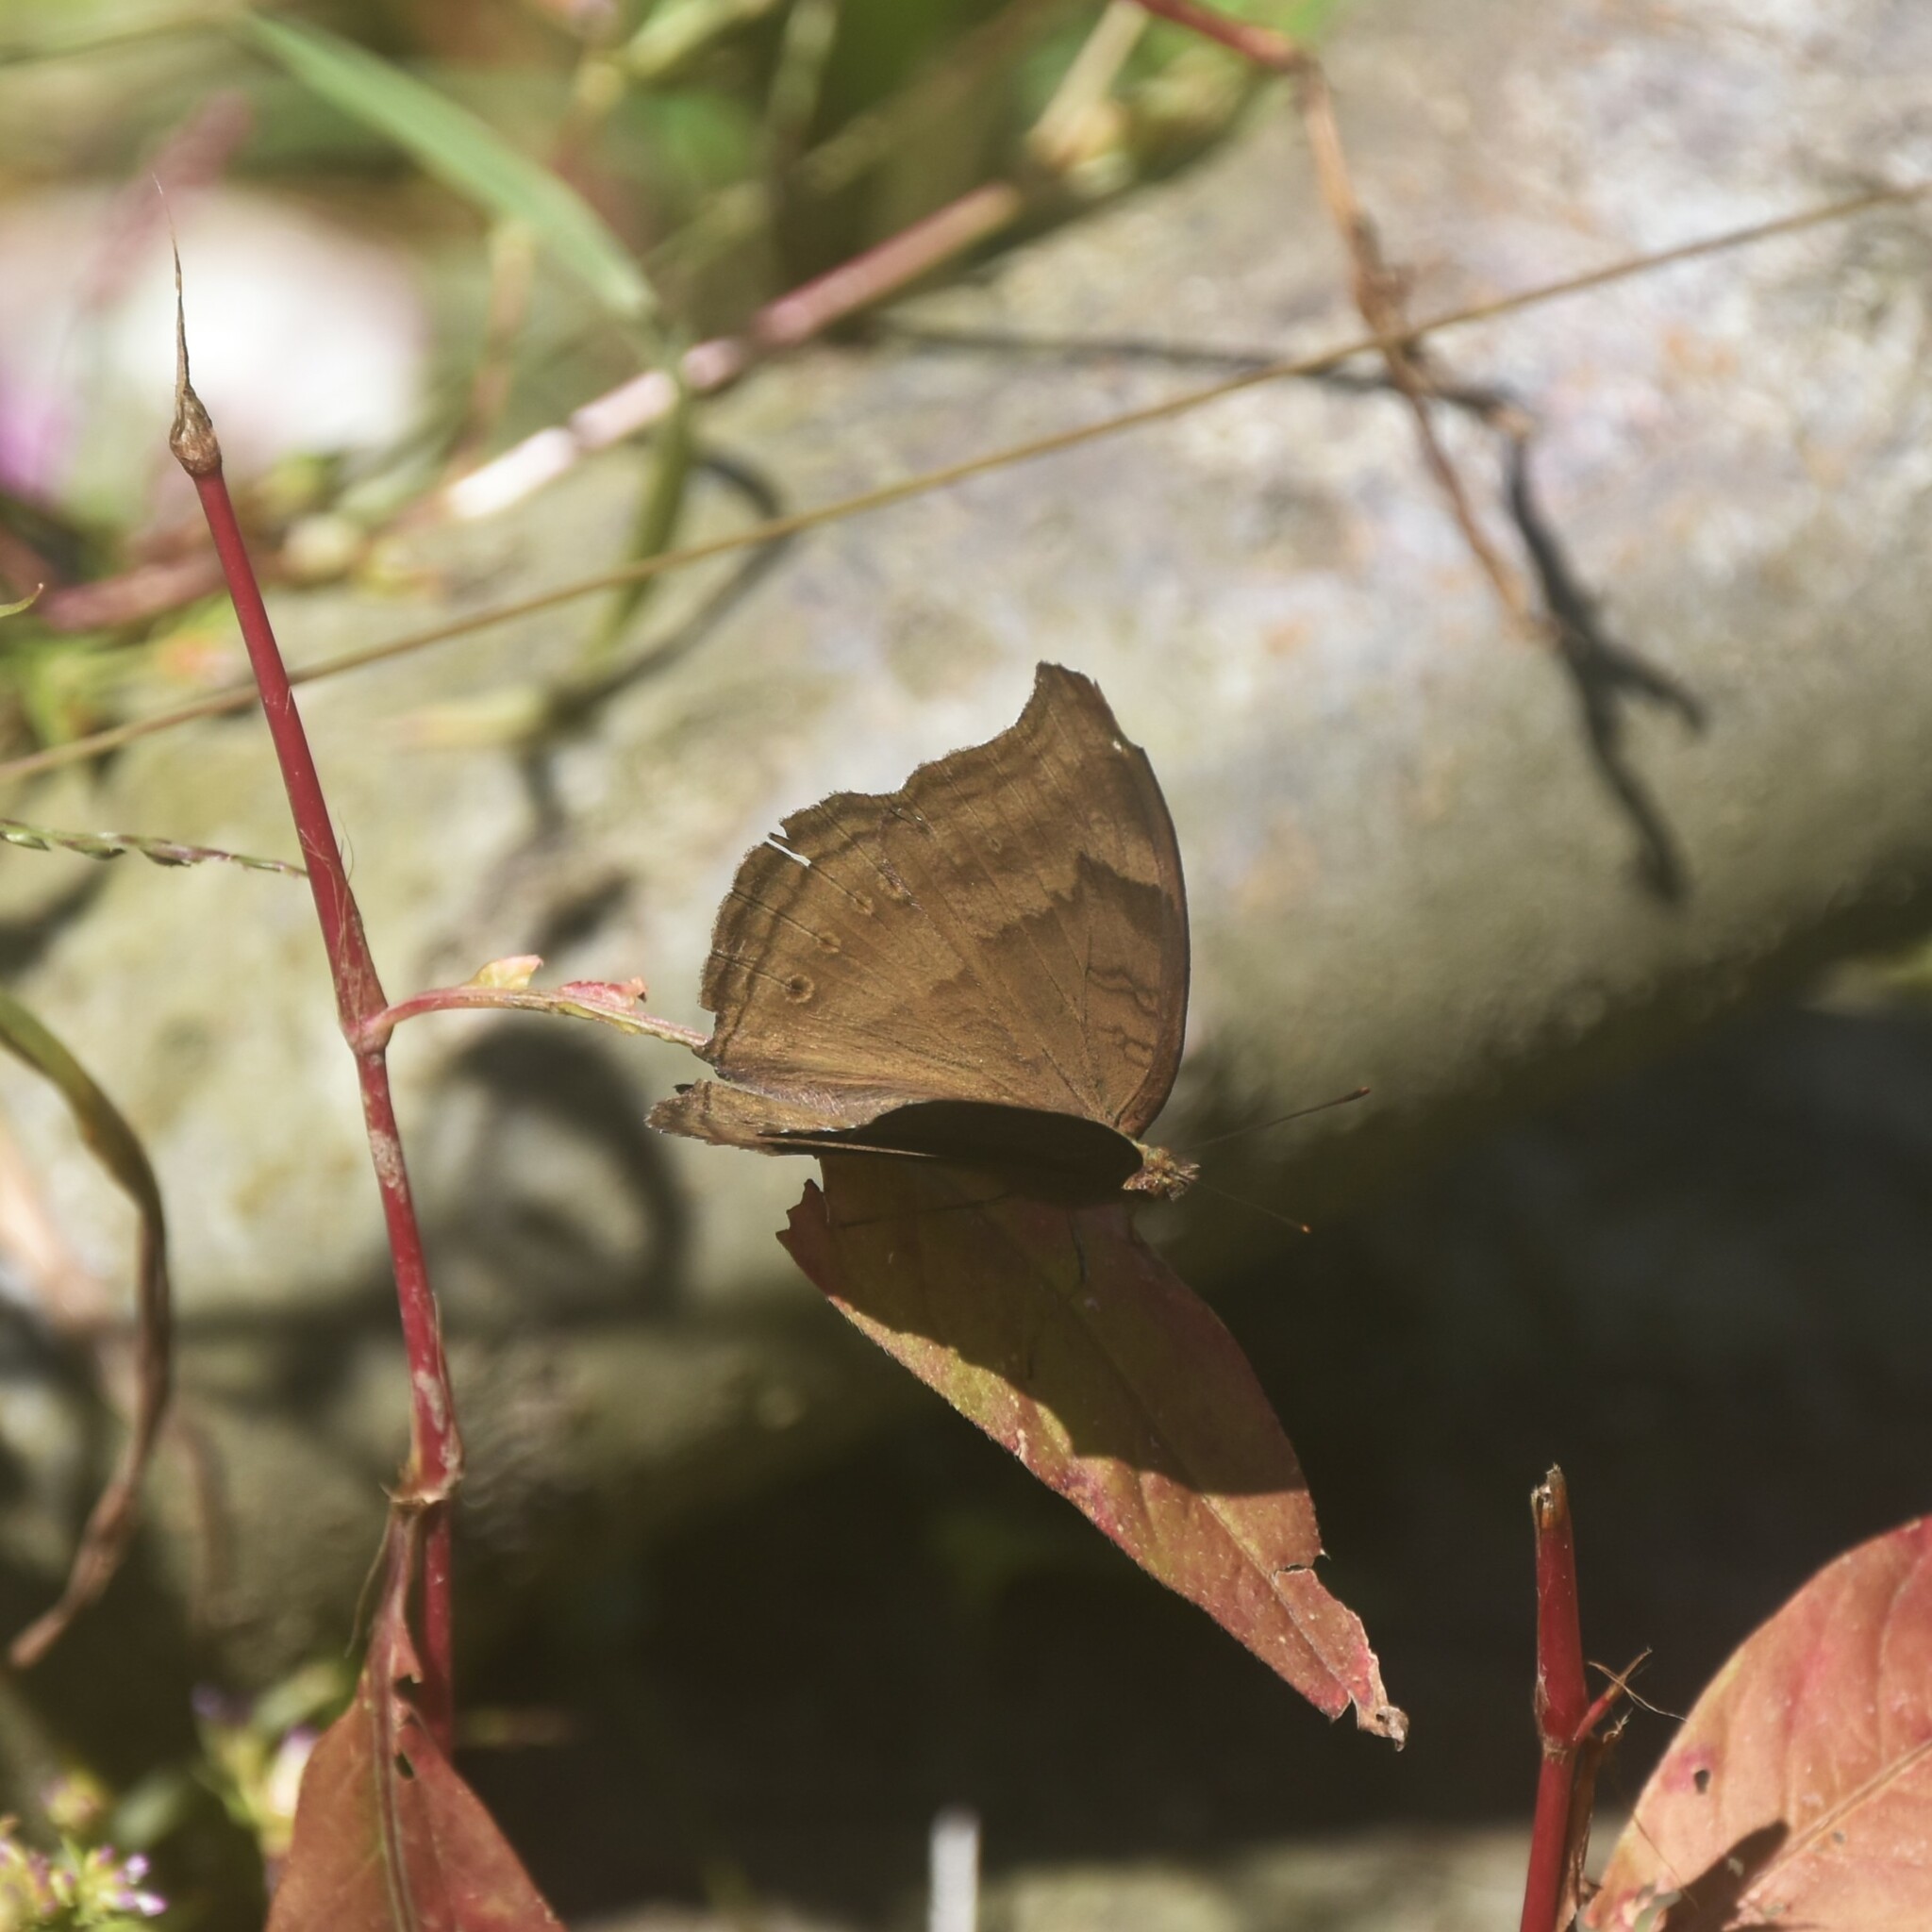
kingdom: Animalia
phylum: Arthropoda
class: Insecta
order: Lepidoptera
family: Nymphalidae
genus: Junonia
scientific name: Junonia iphita
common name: Chocolate pansy
